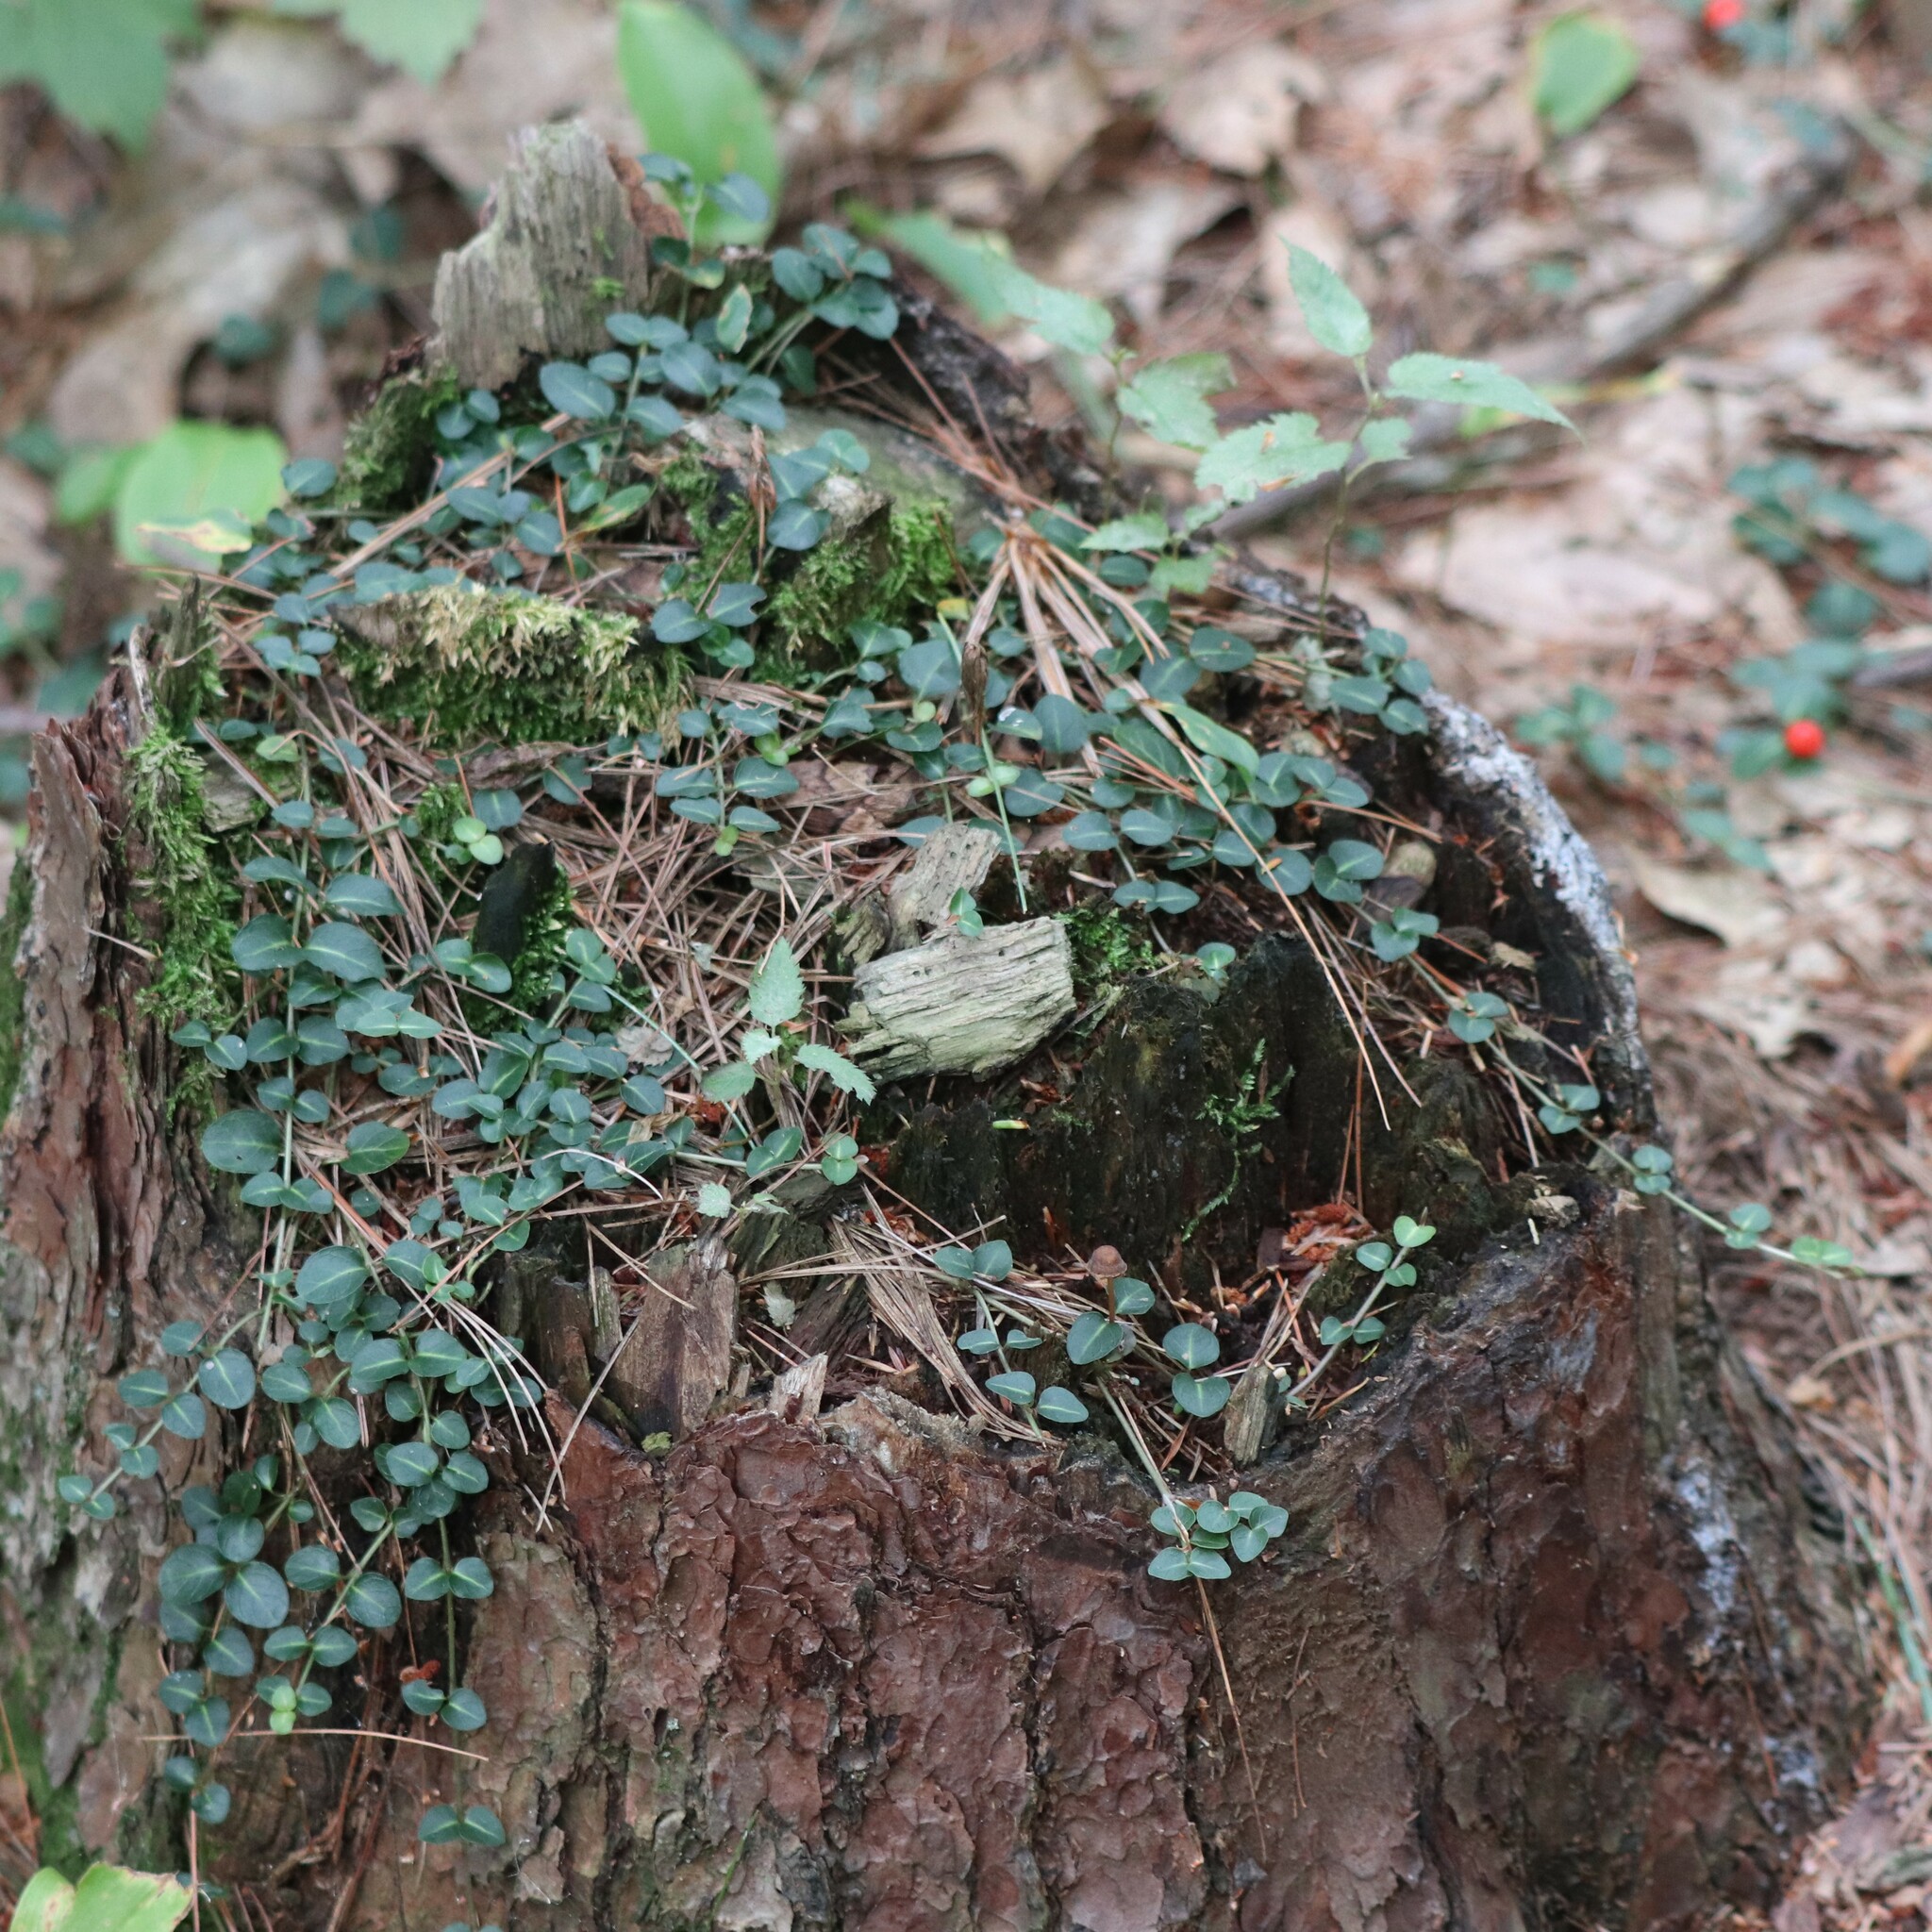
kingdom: Plantae
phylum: Tracheophyta
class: Magnoliopsida
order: Gentianales
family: Rubiaceae
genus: Mitchella
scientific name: Mitchella repens
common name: Partridge-berry
